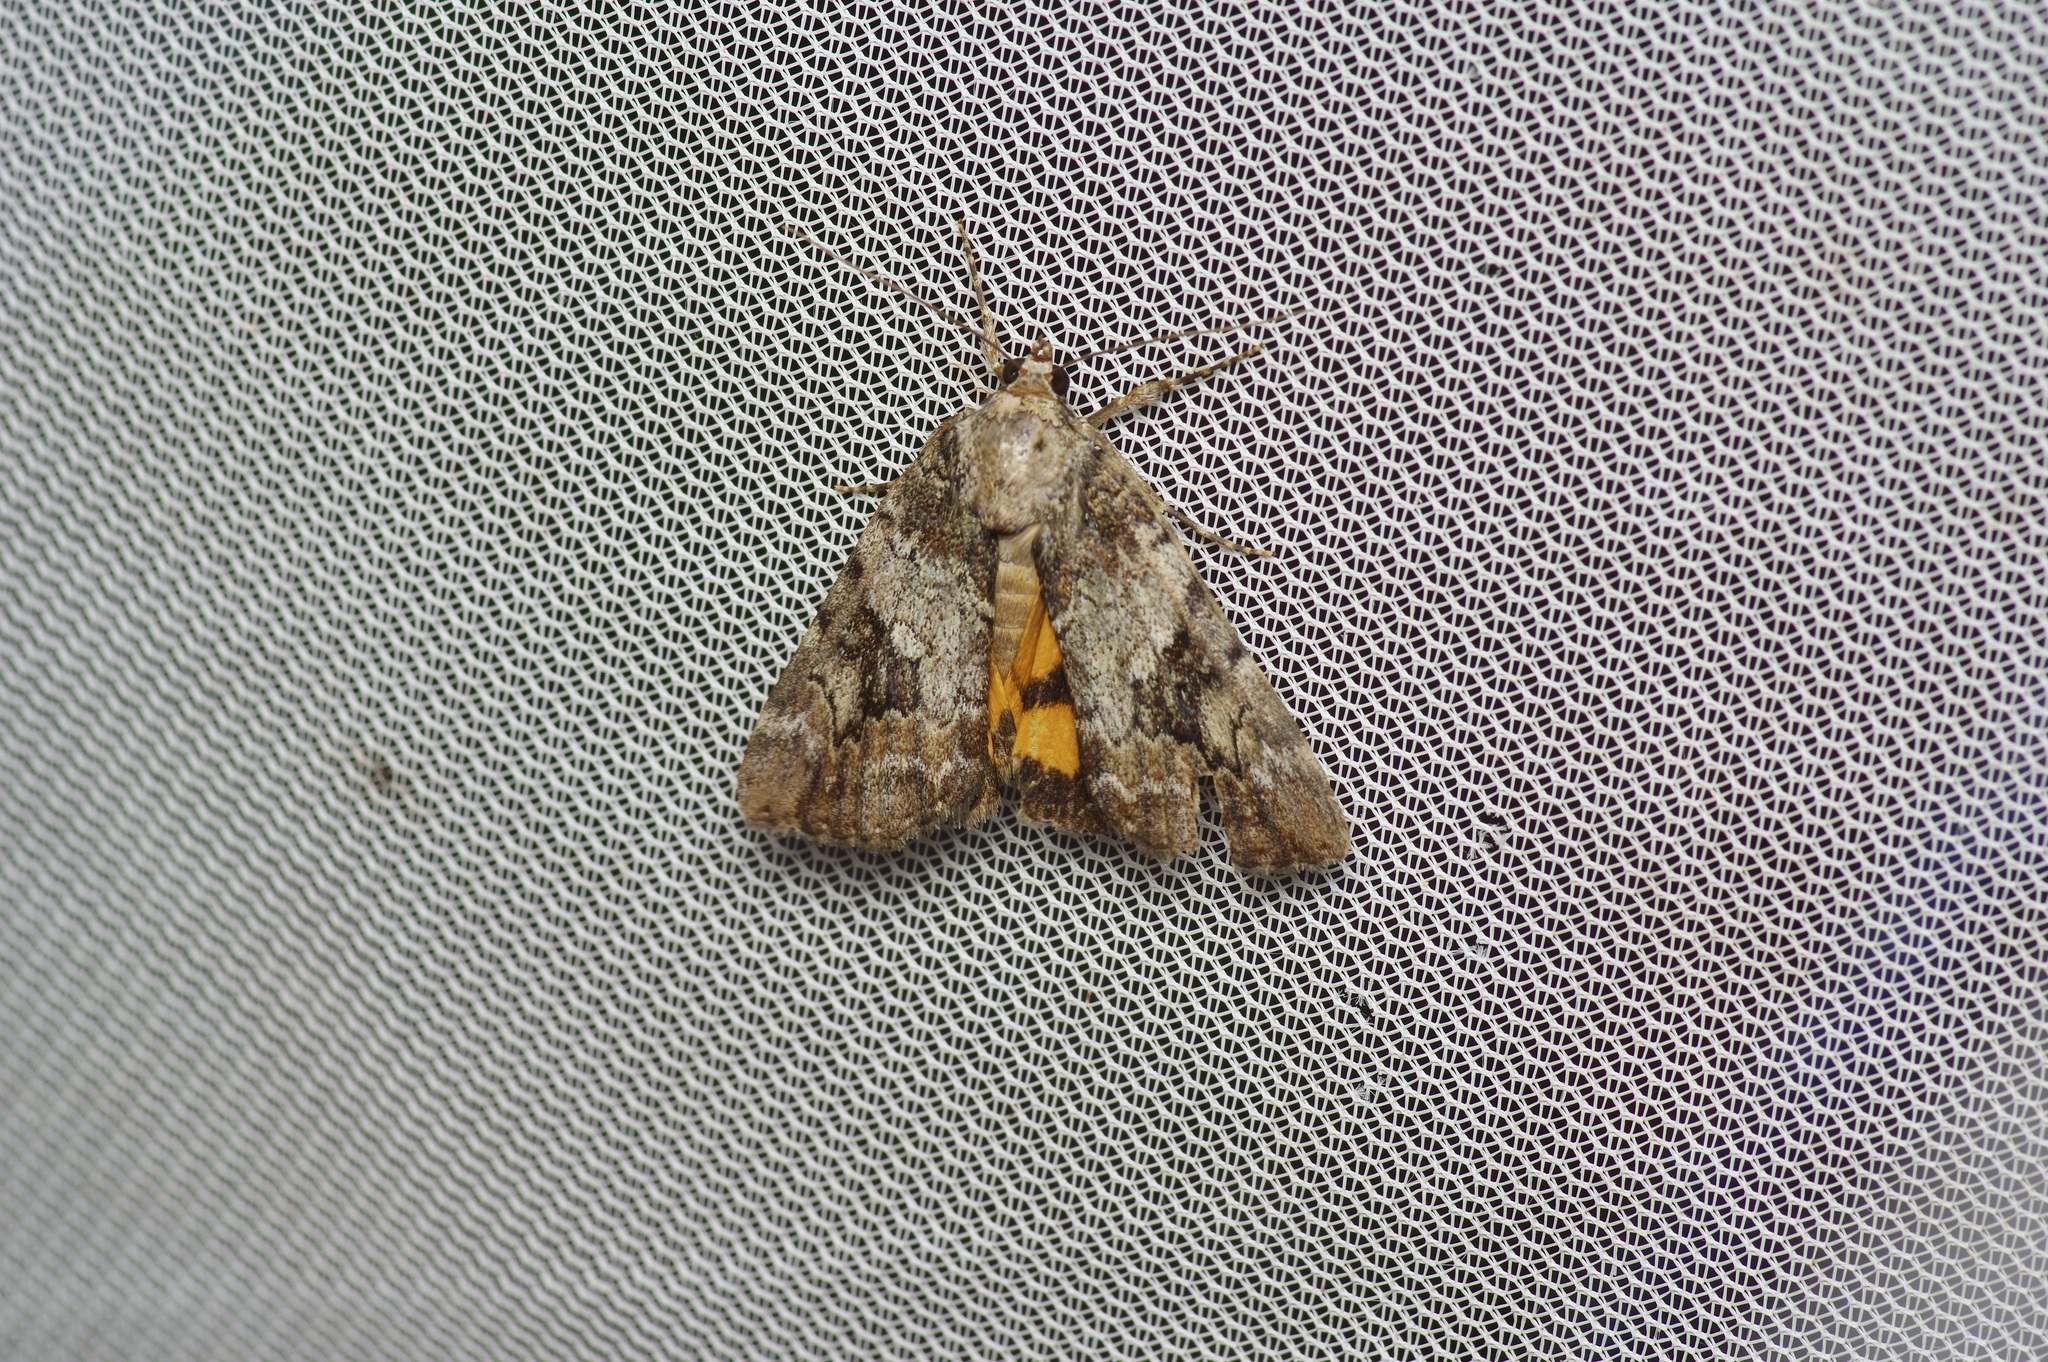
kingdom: Animalia
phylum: Arthropoda
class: Insecta
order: Lepidoptera
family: Erebidae
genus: Catocala
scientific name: Catocala micronympha
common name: Little nymph underwing
